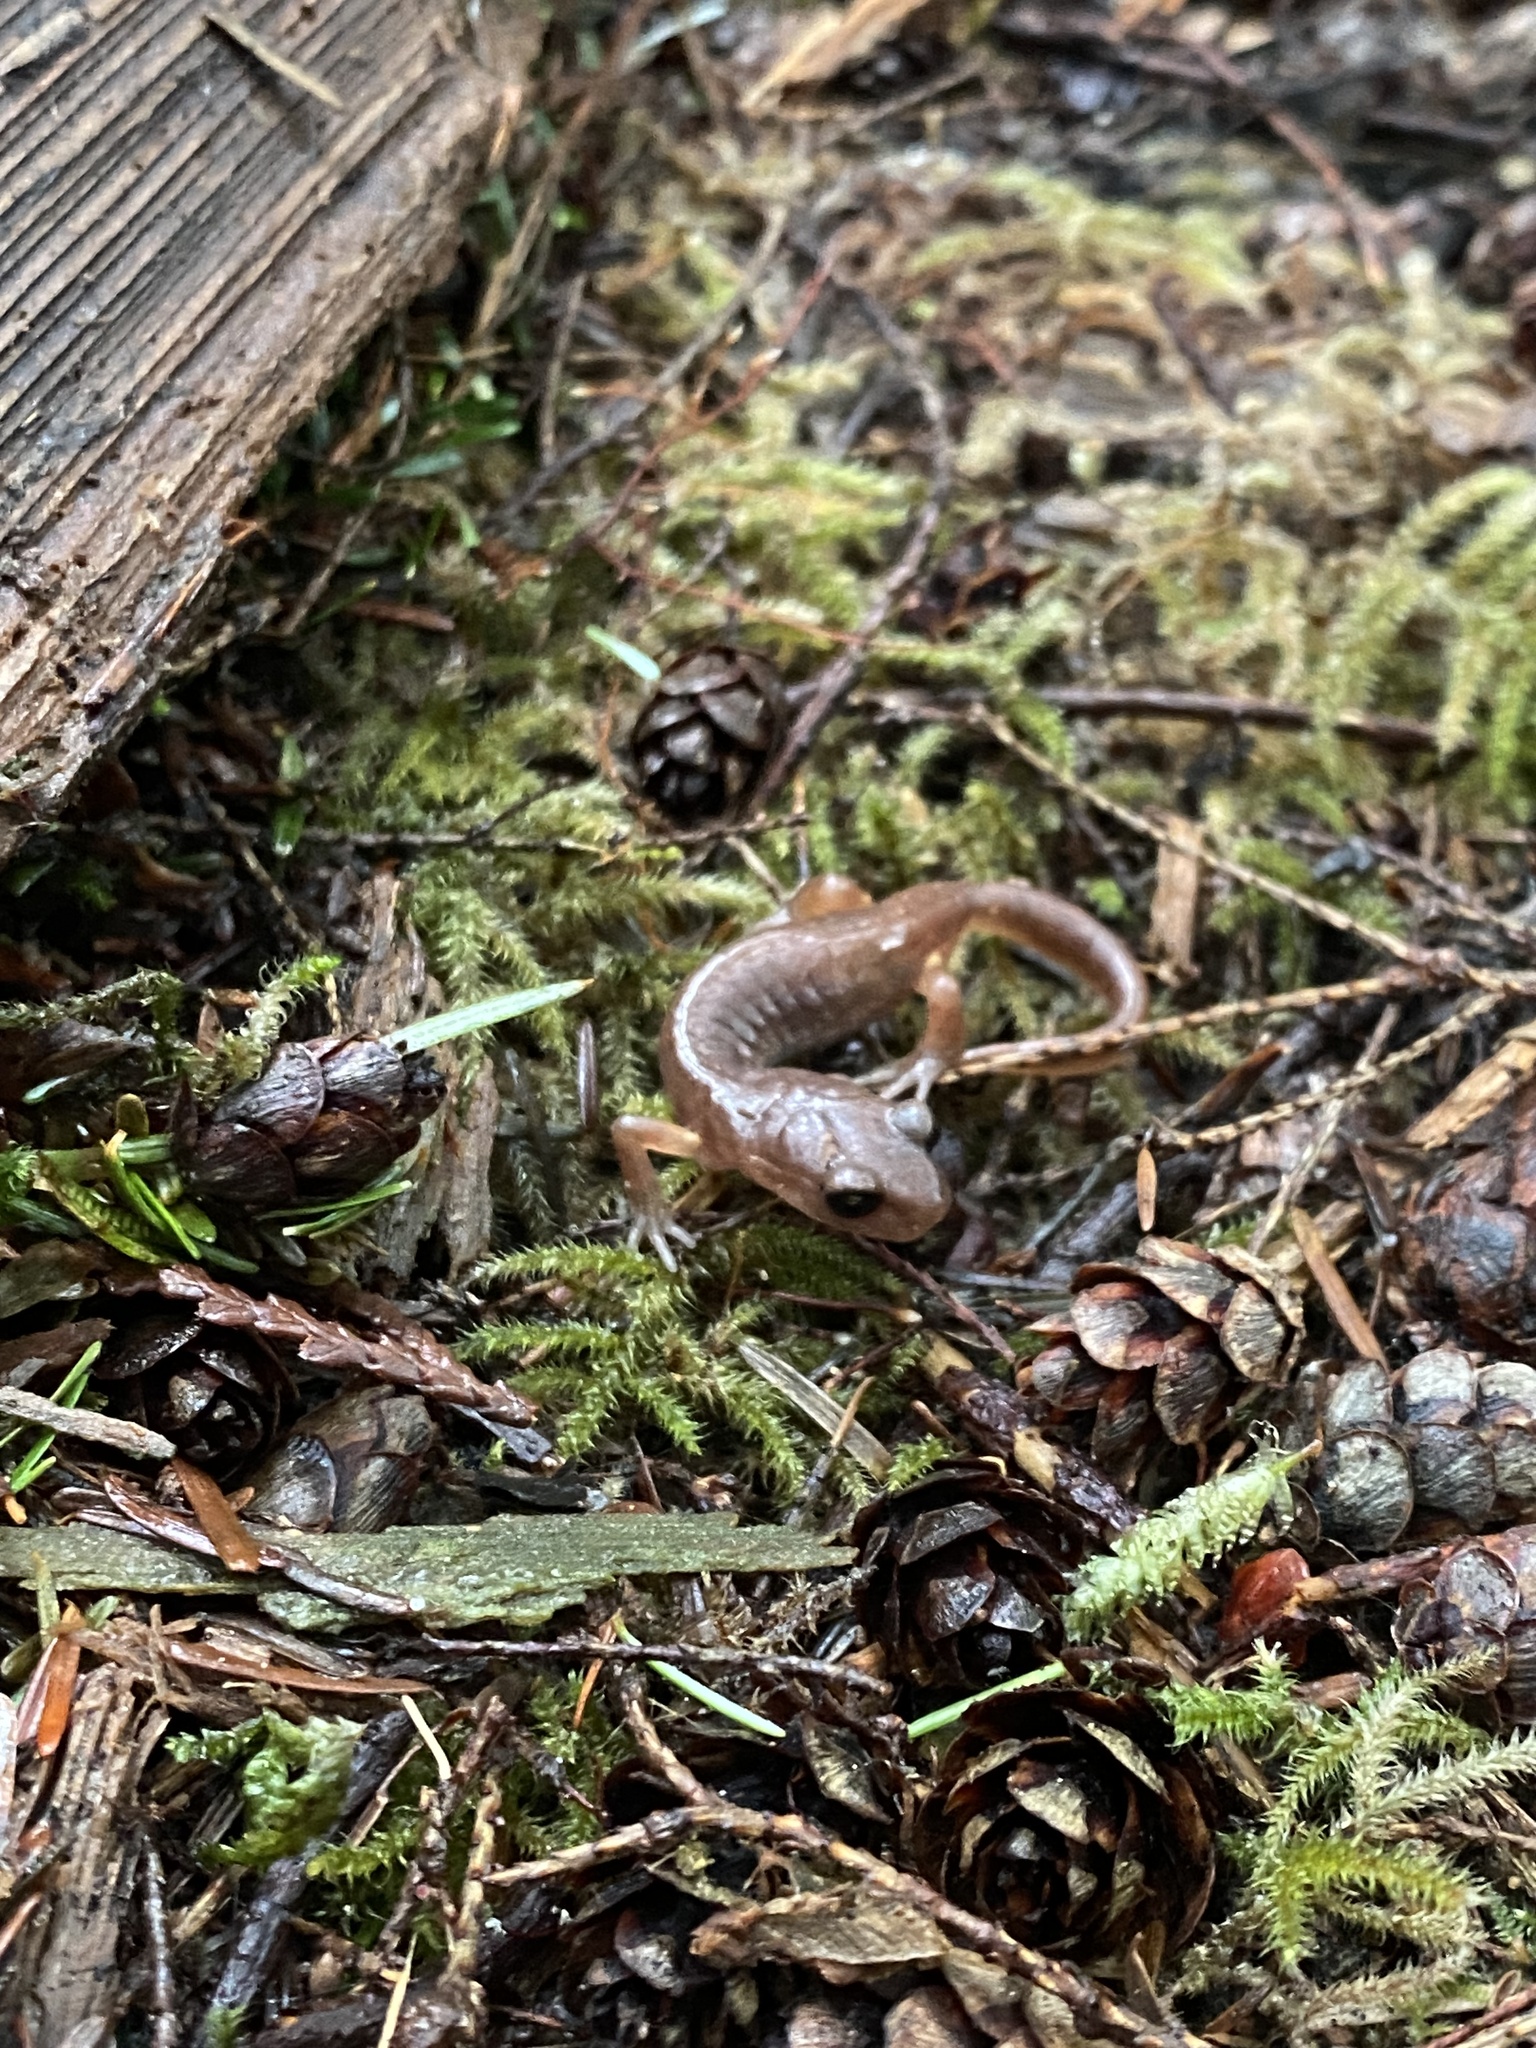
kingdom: Animalia
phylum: Chordata
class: Amphibia
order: Caudata
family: Plethodontidae
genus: Ensatina
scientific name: Ensatina eschscholtzii
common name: Ensatina
